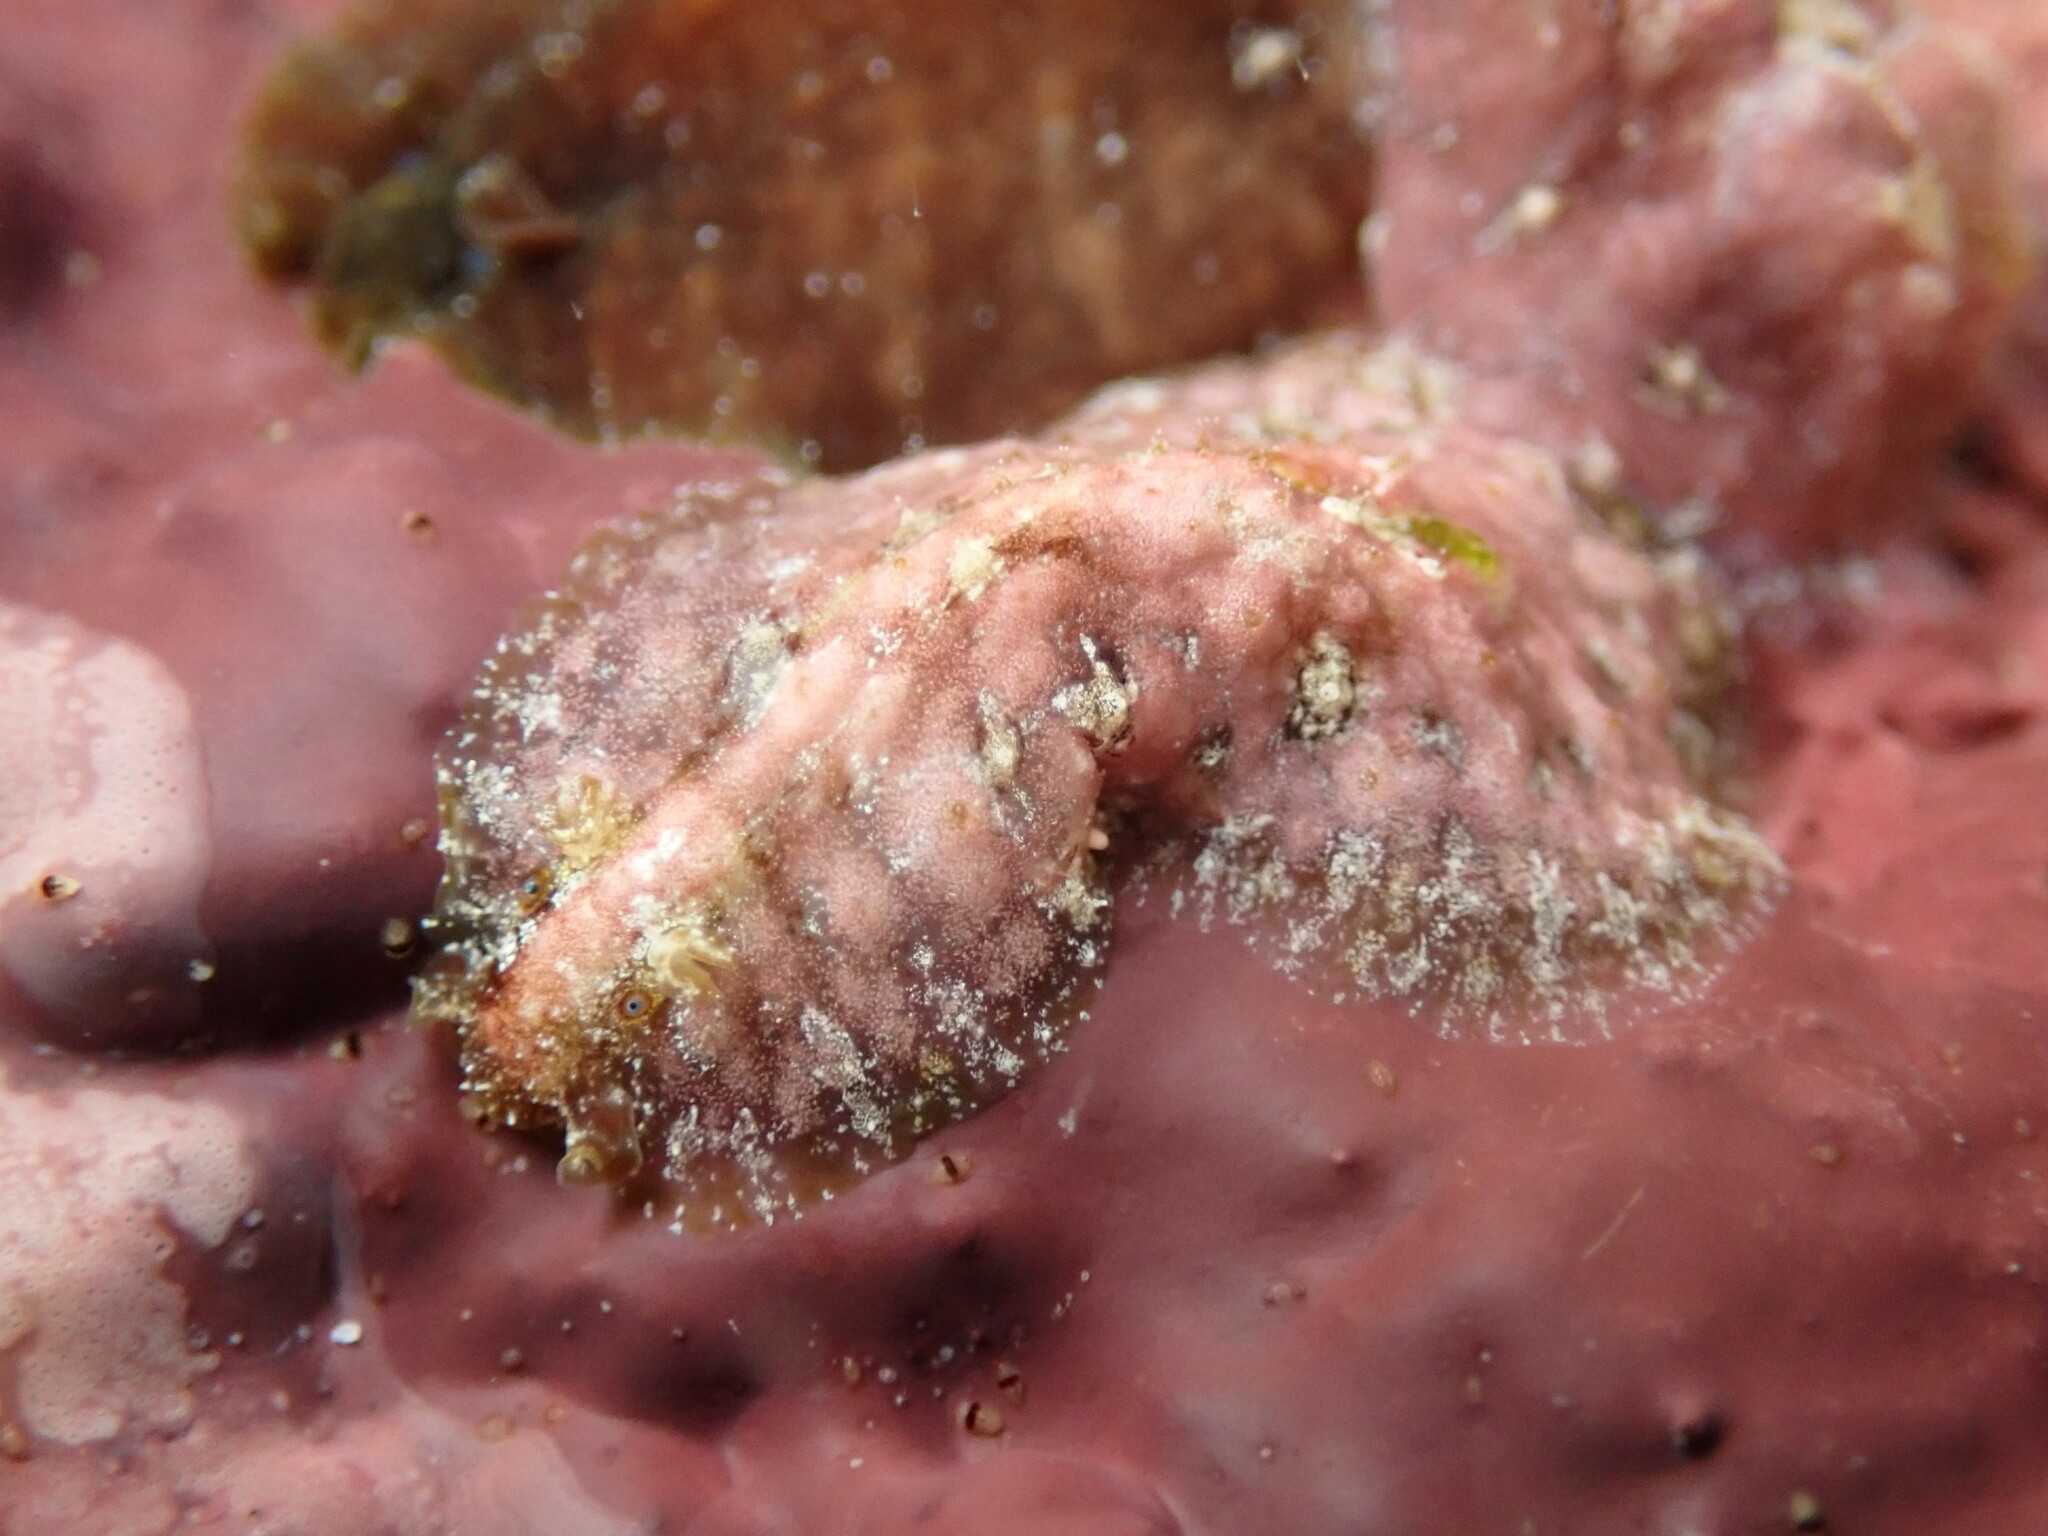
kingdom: Animalia
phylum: Mollusca
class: Gastropoda
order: Aplysiida
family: Aplysiidae
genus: Dolabrifera
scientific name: Dolabrifera dolabrifera
